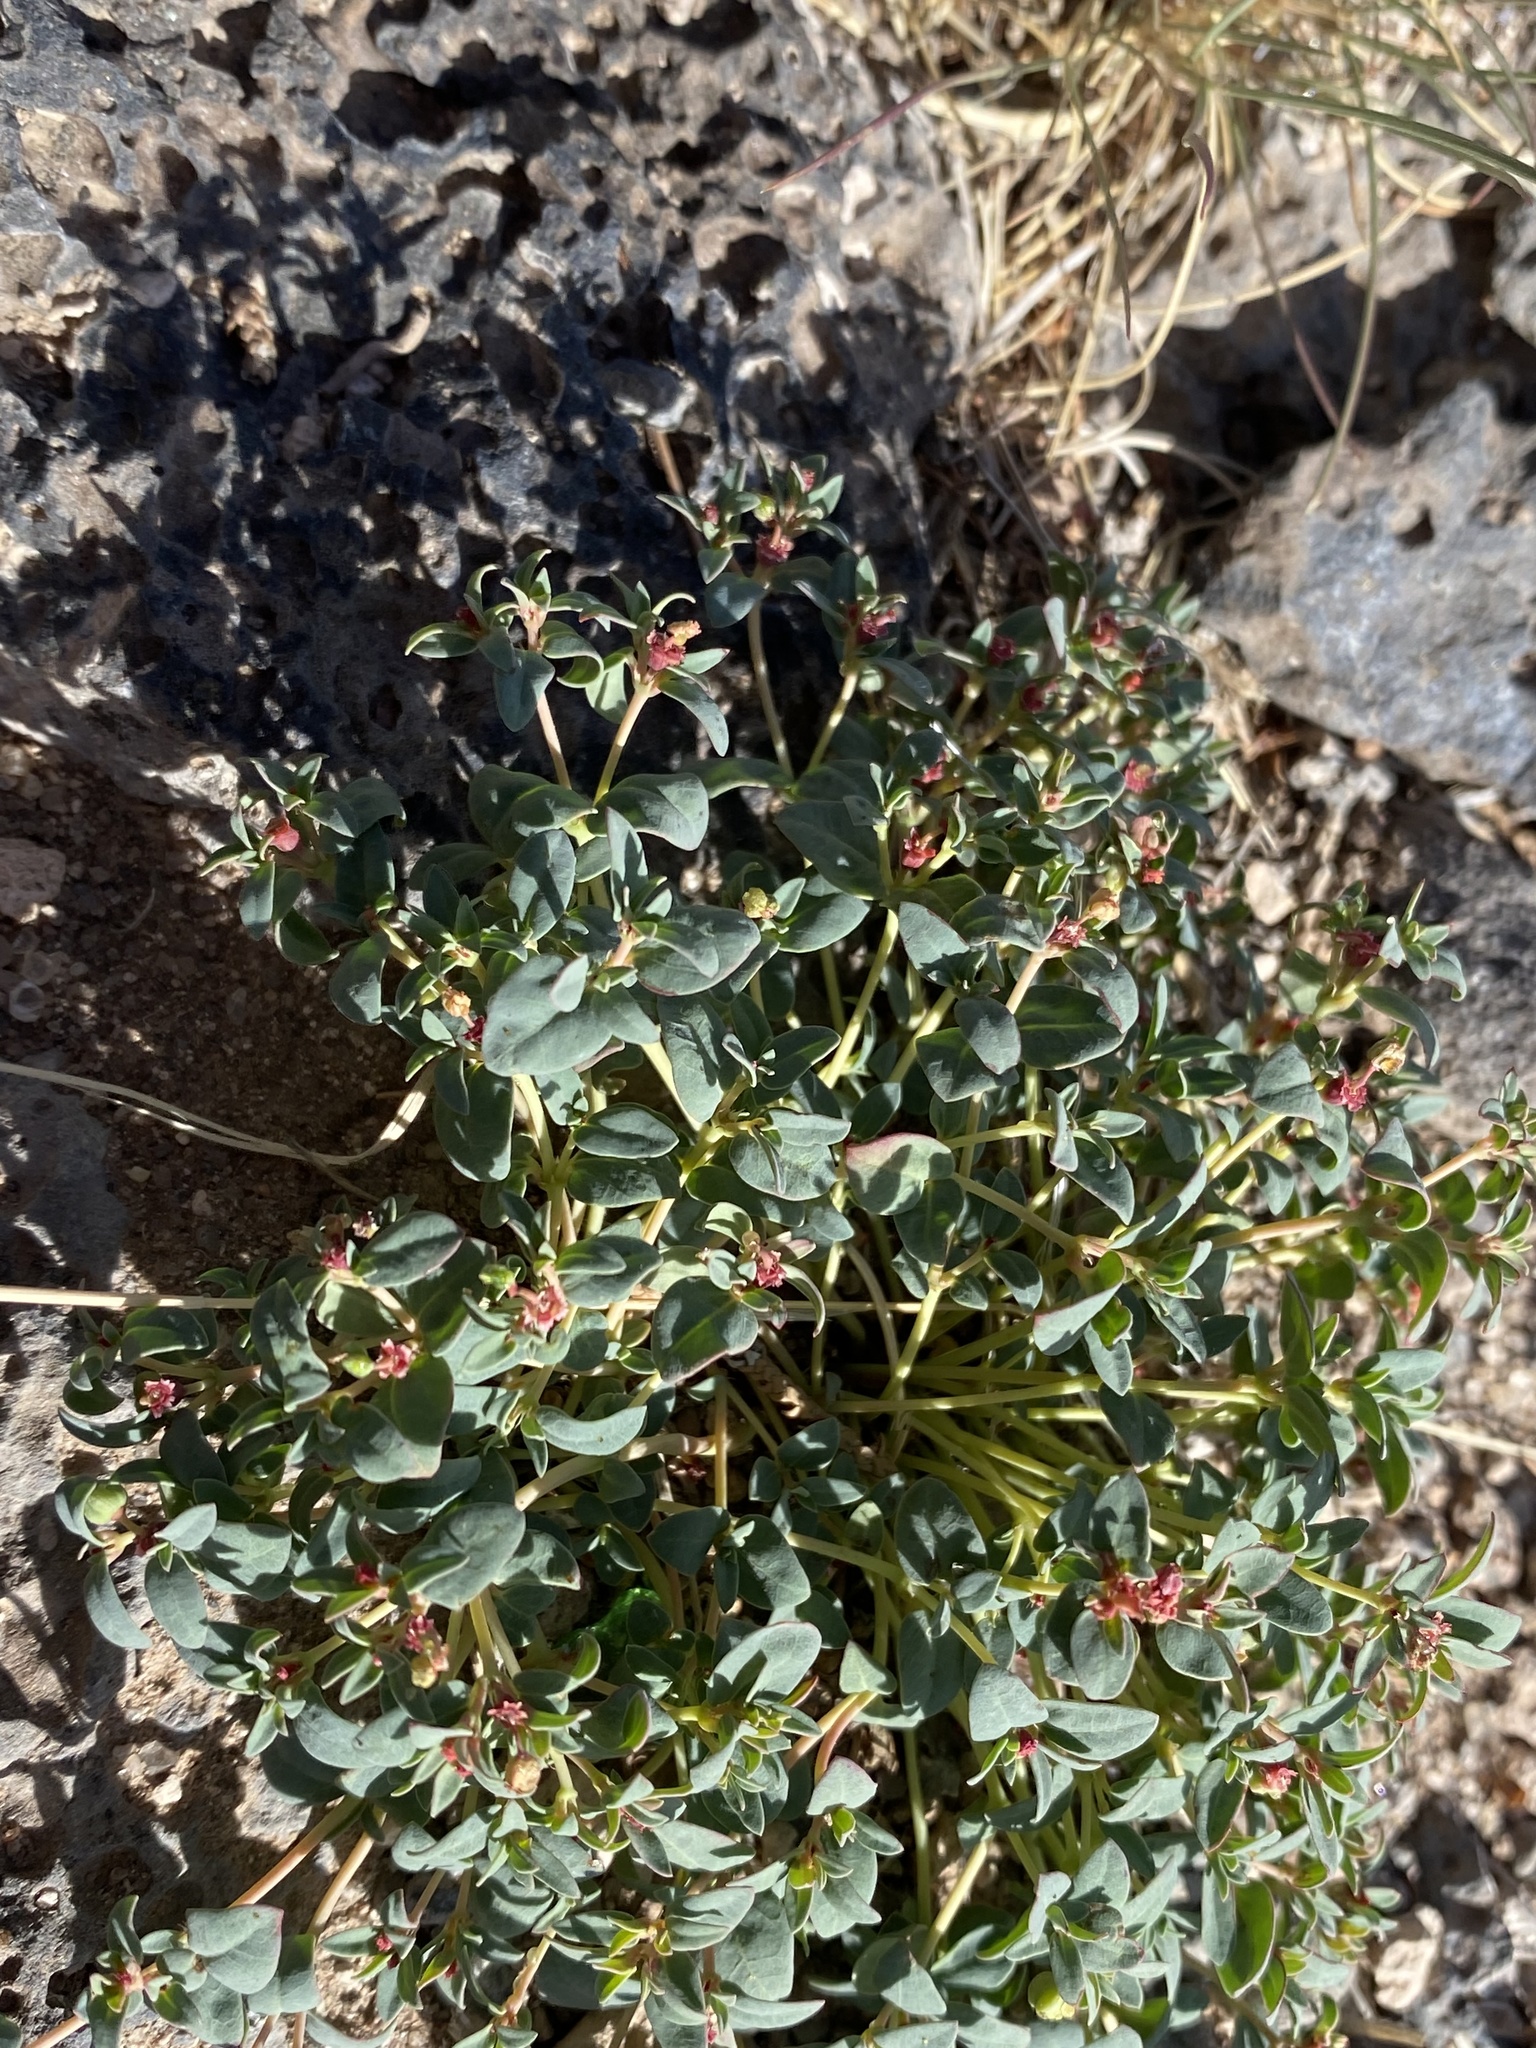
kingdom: Plantae
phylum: Tracheophyta
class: Magnoliopsida
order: Malpighiales
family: Euphorbiaceae
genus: Euphorbia
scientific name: Euphorbia fendleri
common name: Fendler's euphorbia
